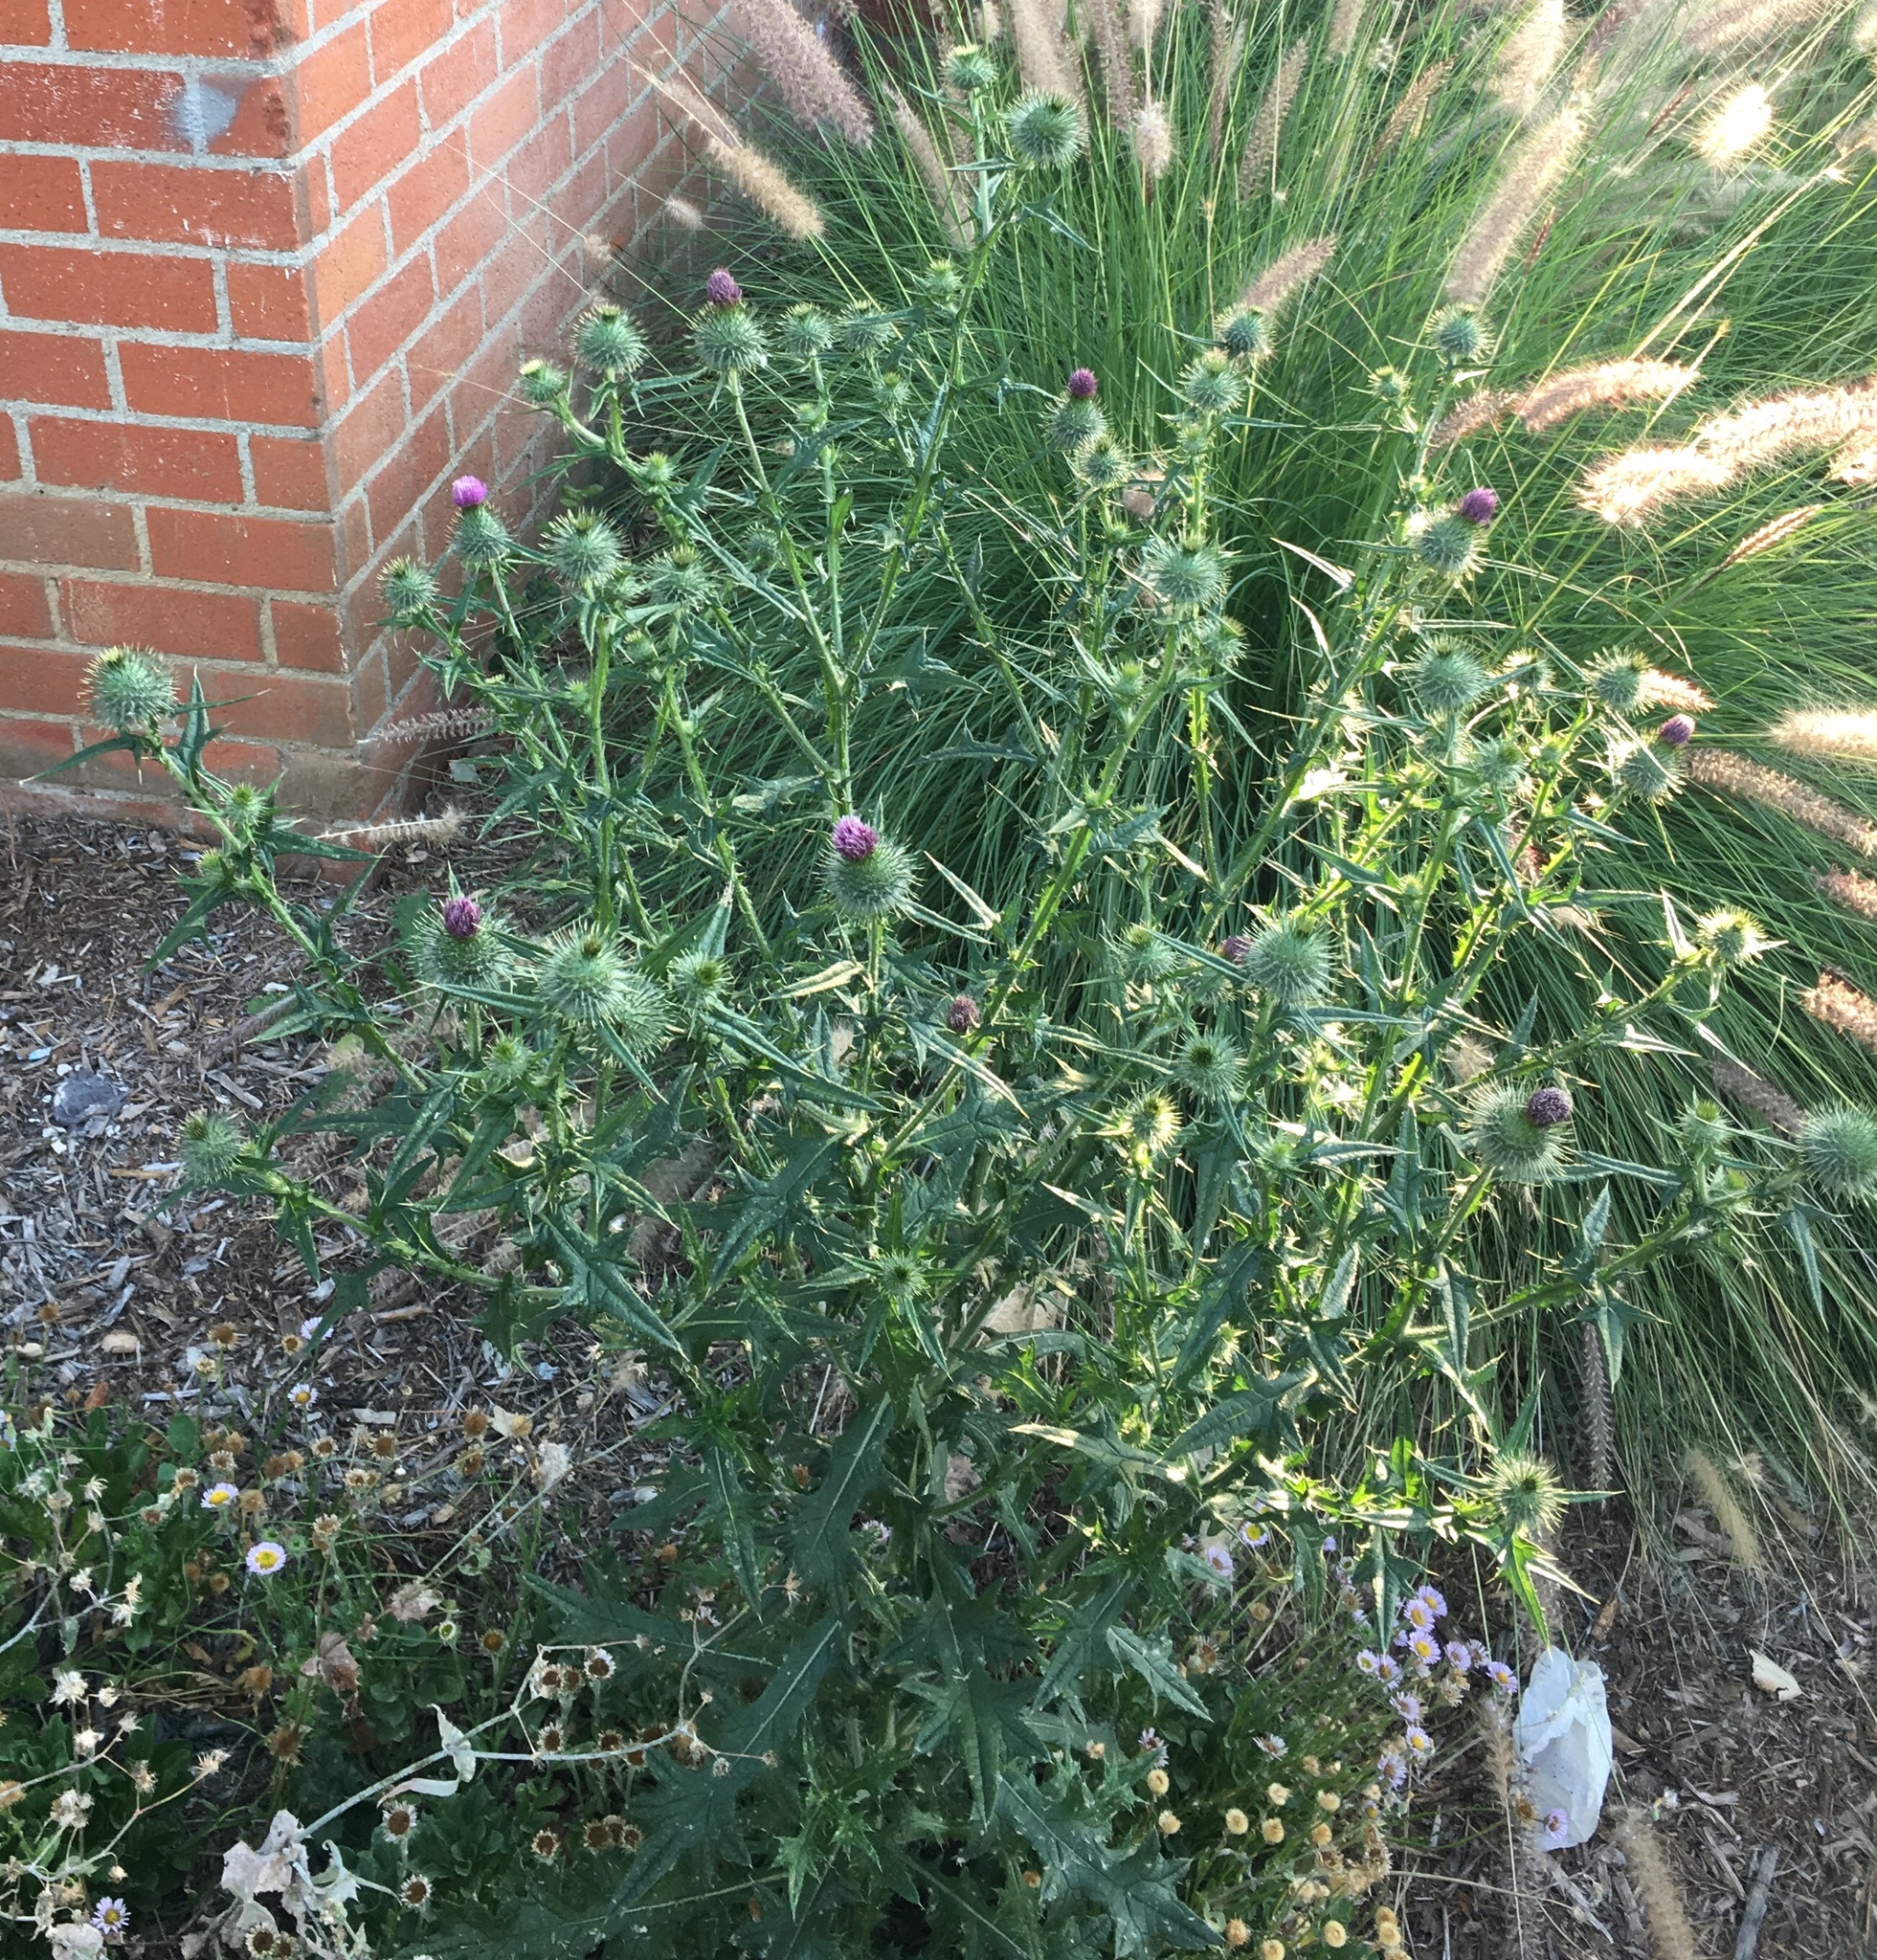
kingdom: Plantae
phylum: Tracheophyta
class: Magnoliopsida
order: Asterales
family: Asteraceae
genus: Cirsium
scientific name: Cirsium vulgare
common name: Bull thistle
